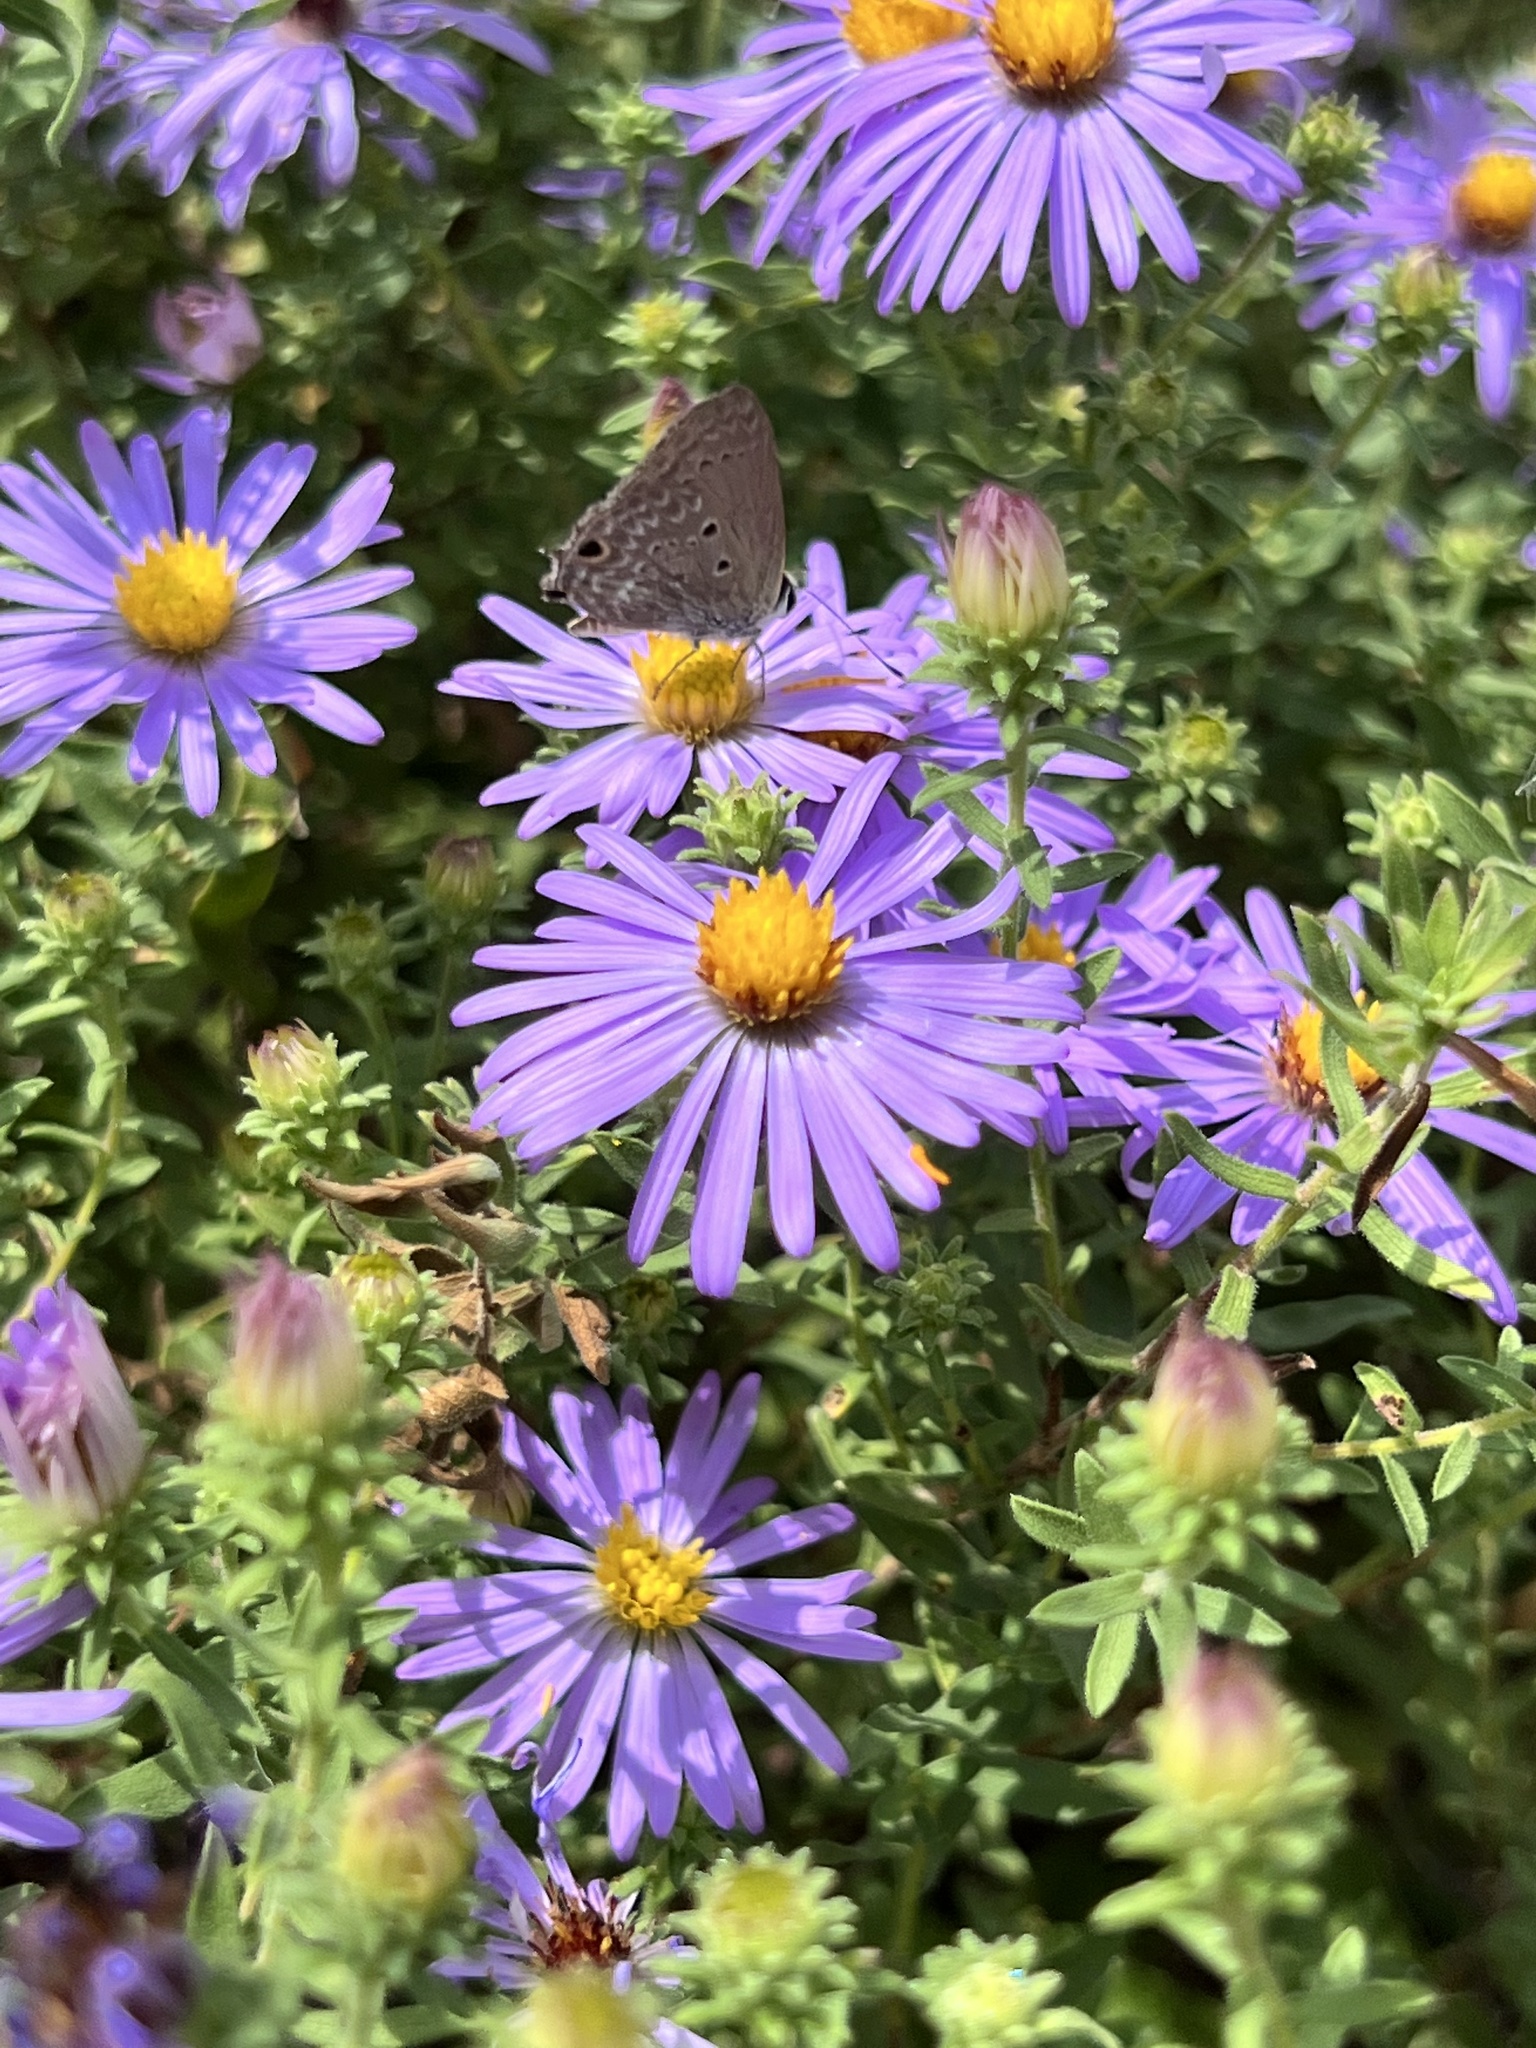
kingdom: Animalia
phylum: Arthropoda
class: Insecta
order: Lepidoptera
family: Lycaenidae
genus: Callicista
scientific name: Callicista columella
